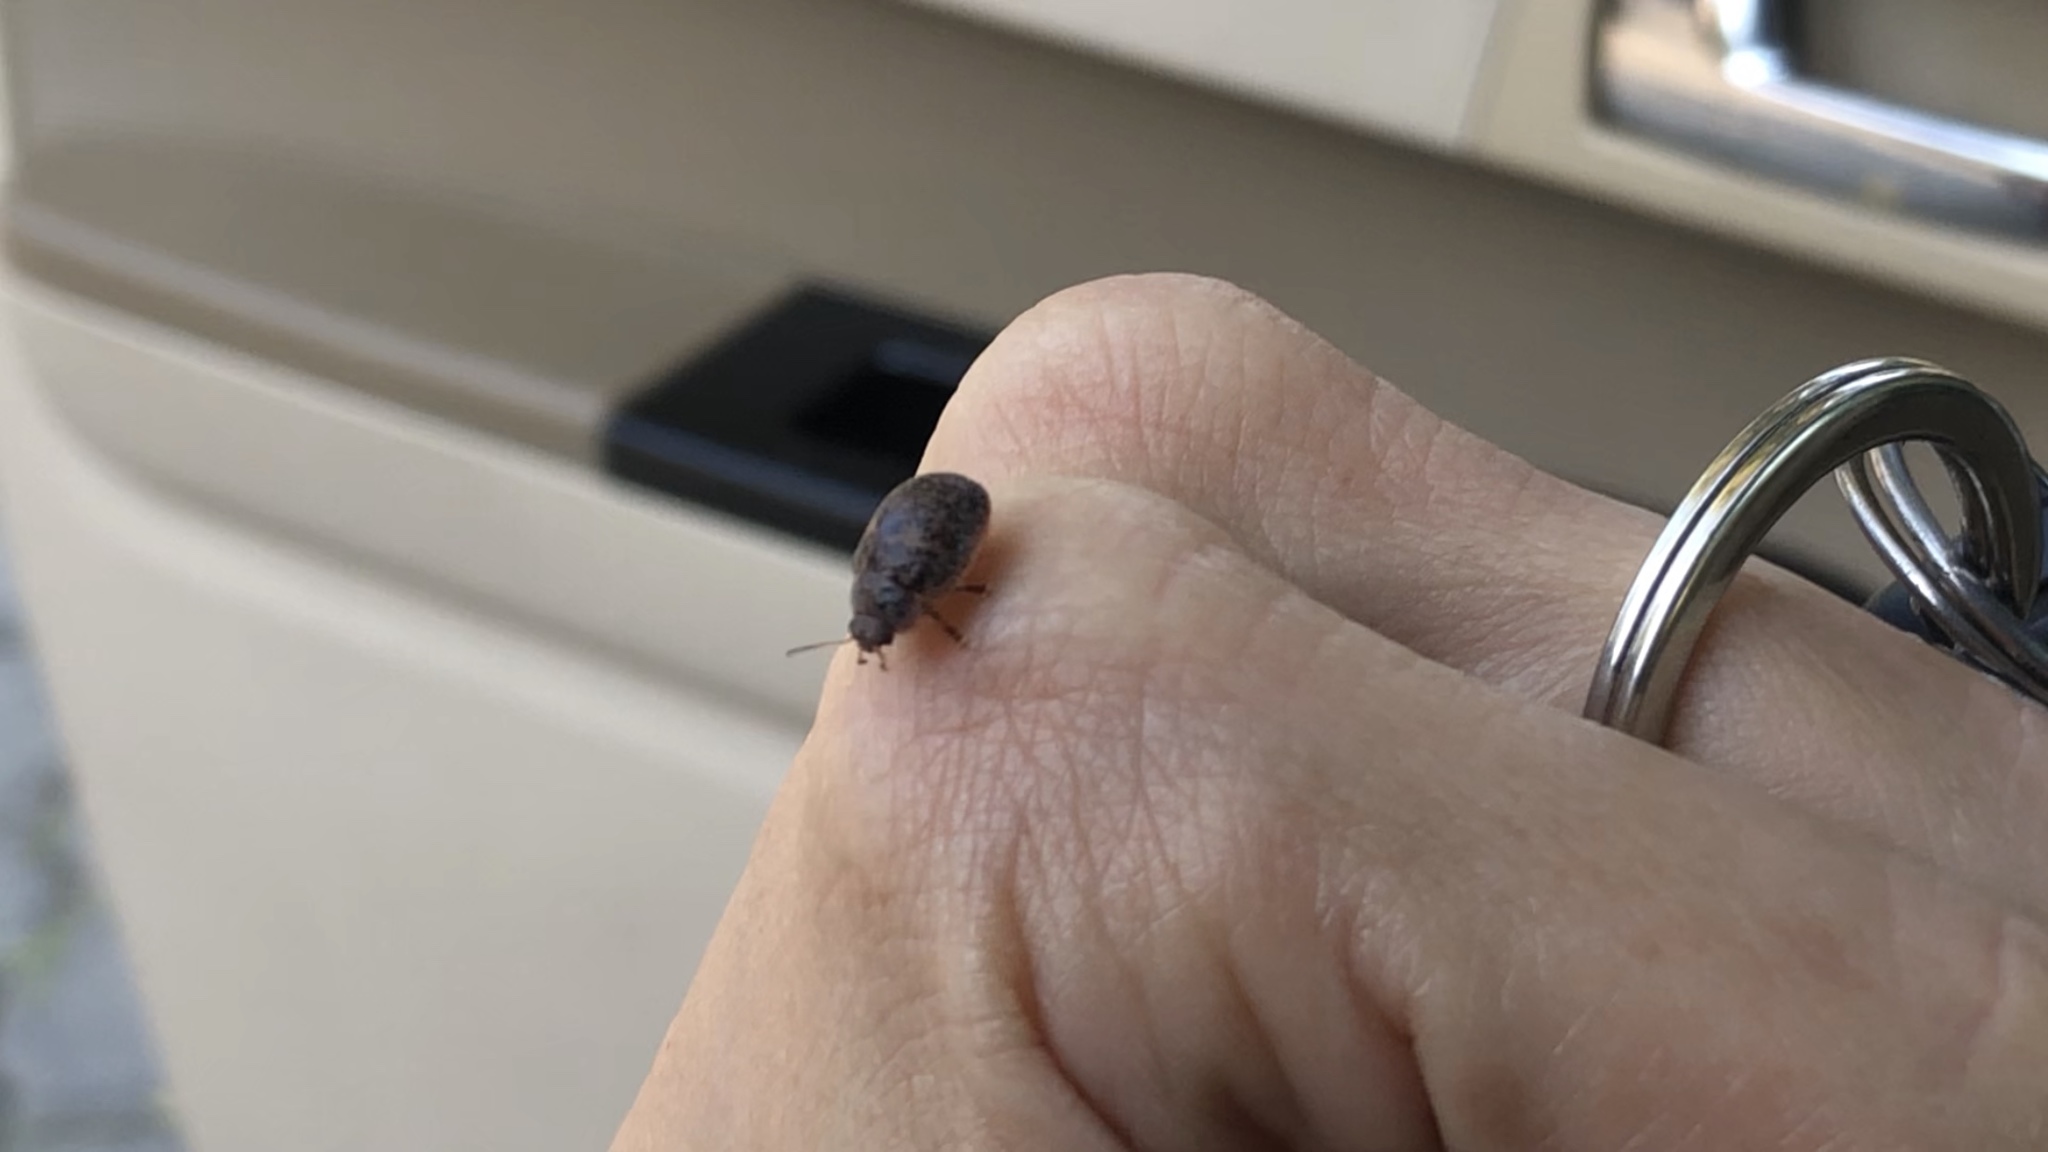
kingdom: Animalia
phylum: Arthropoda
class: Insecta
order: Coleoptera
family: Chrysomelidae
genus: Trachymela
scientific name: Trachymela sloanei
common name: Australian tortoise beetle
